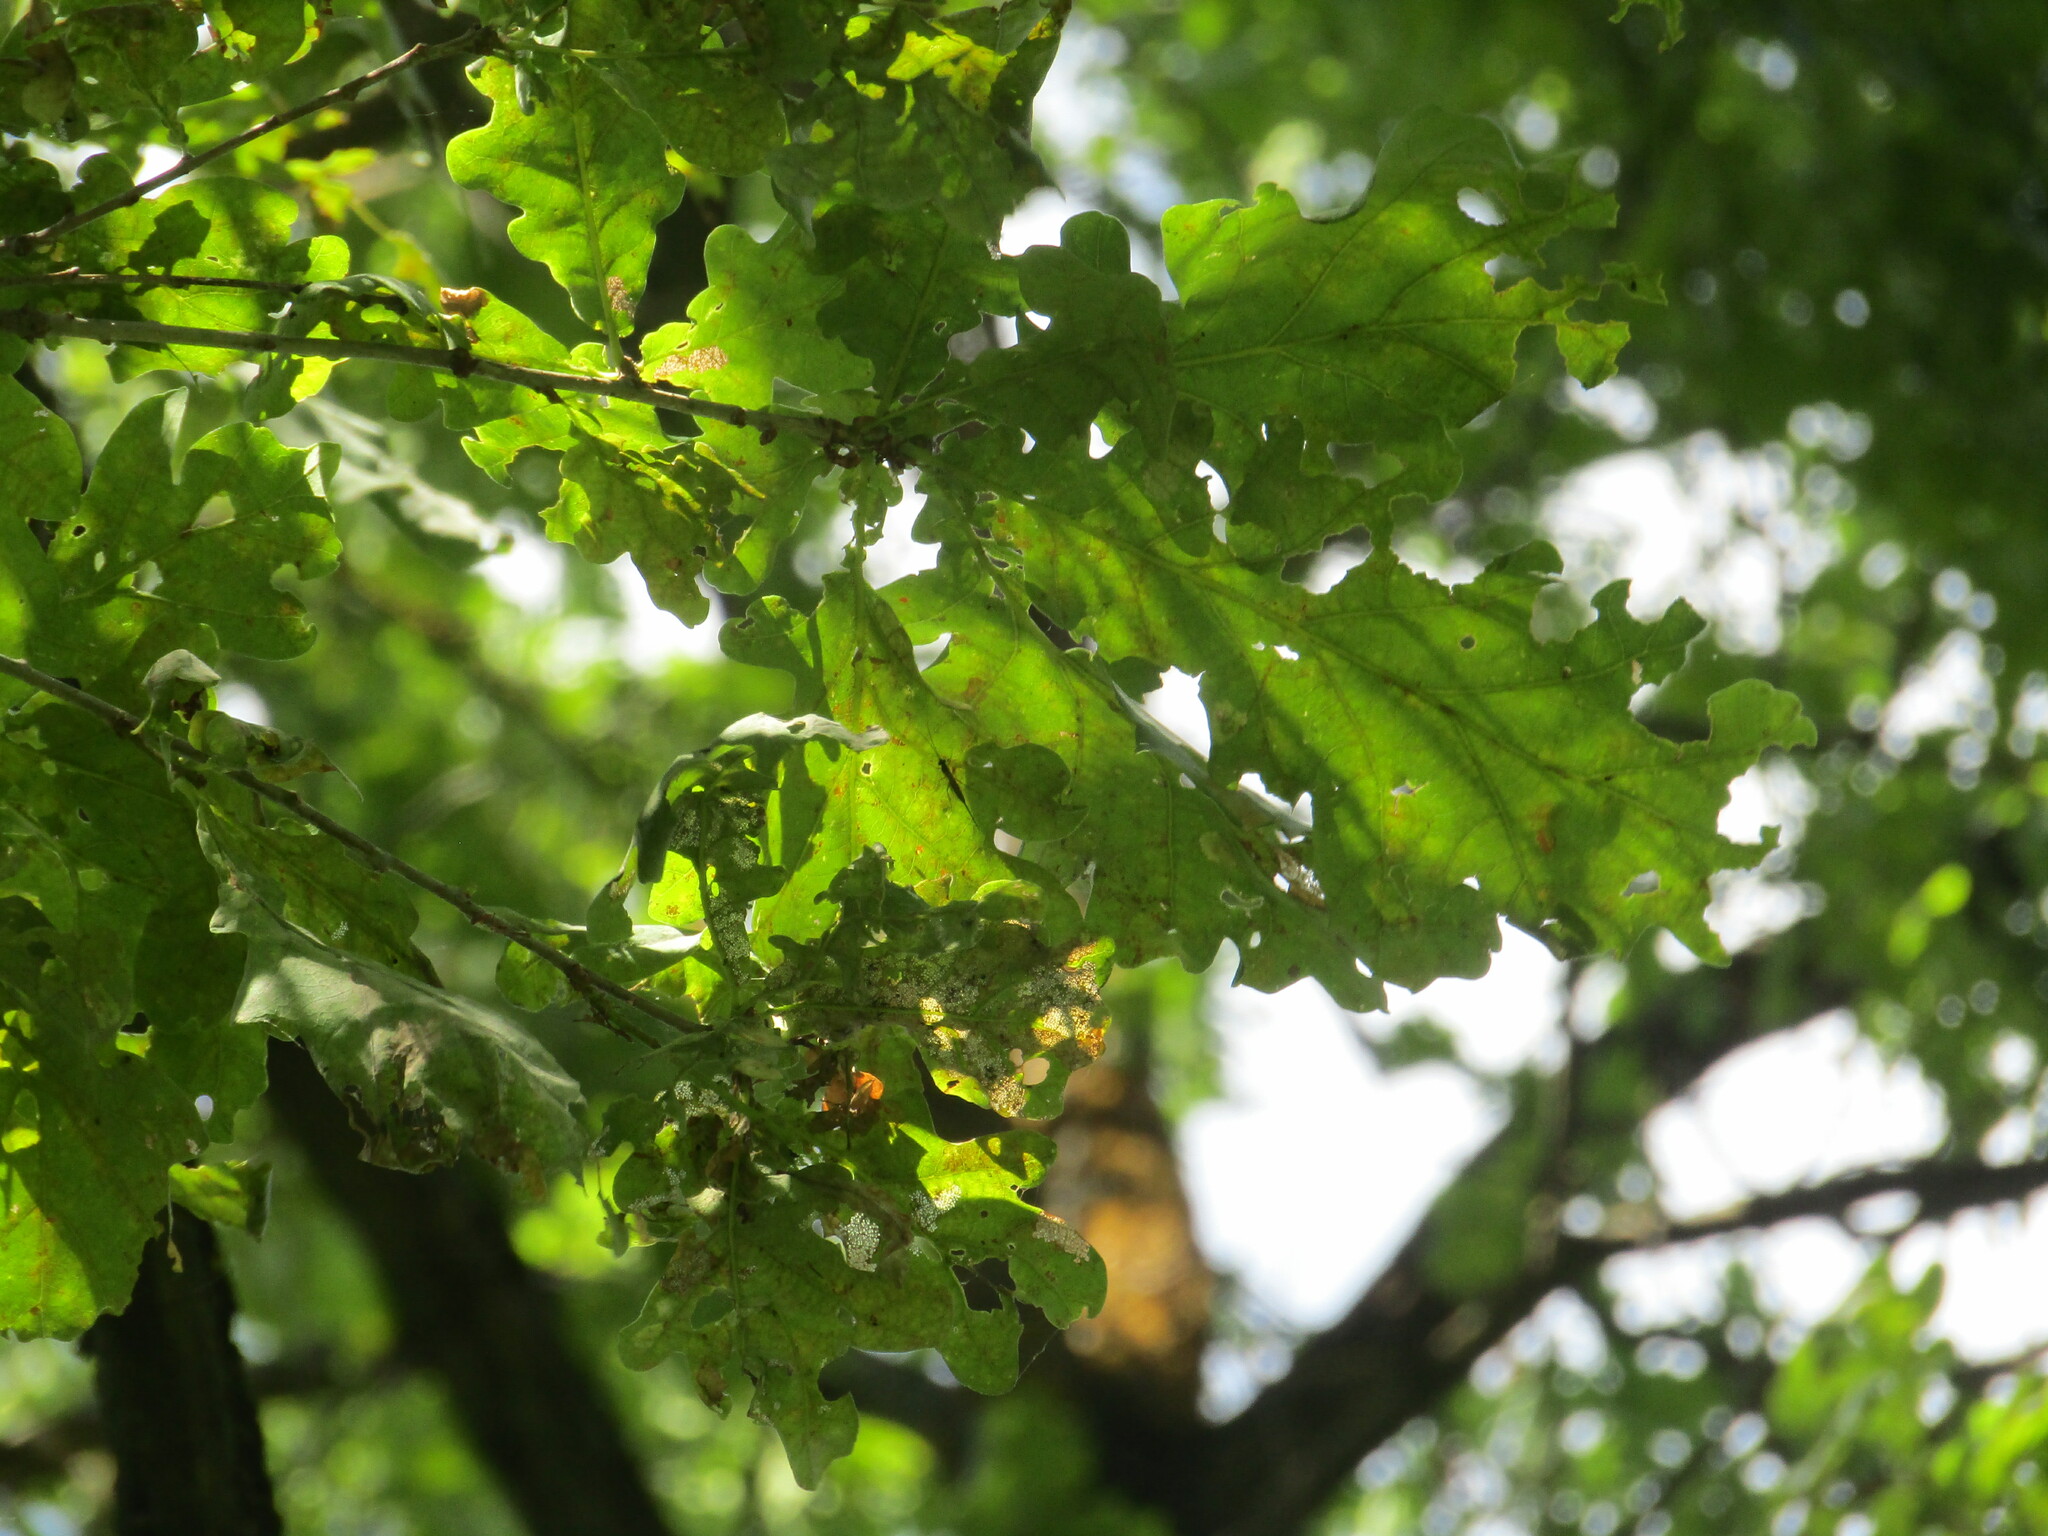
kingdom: Plantae
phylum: Tracheophyta
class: Magnoliopsida
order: Fagales
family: Fagaceae
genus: Quercus
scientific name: Quercus robur
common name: Pedunculate oak
